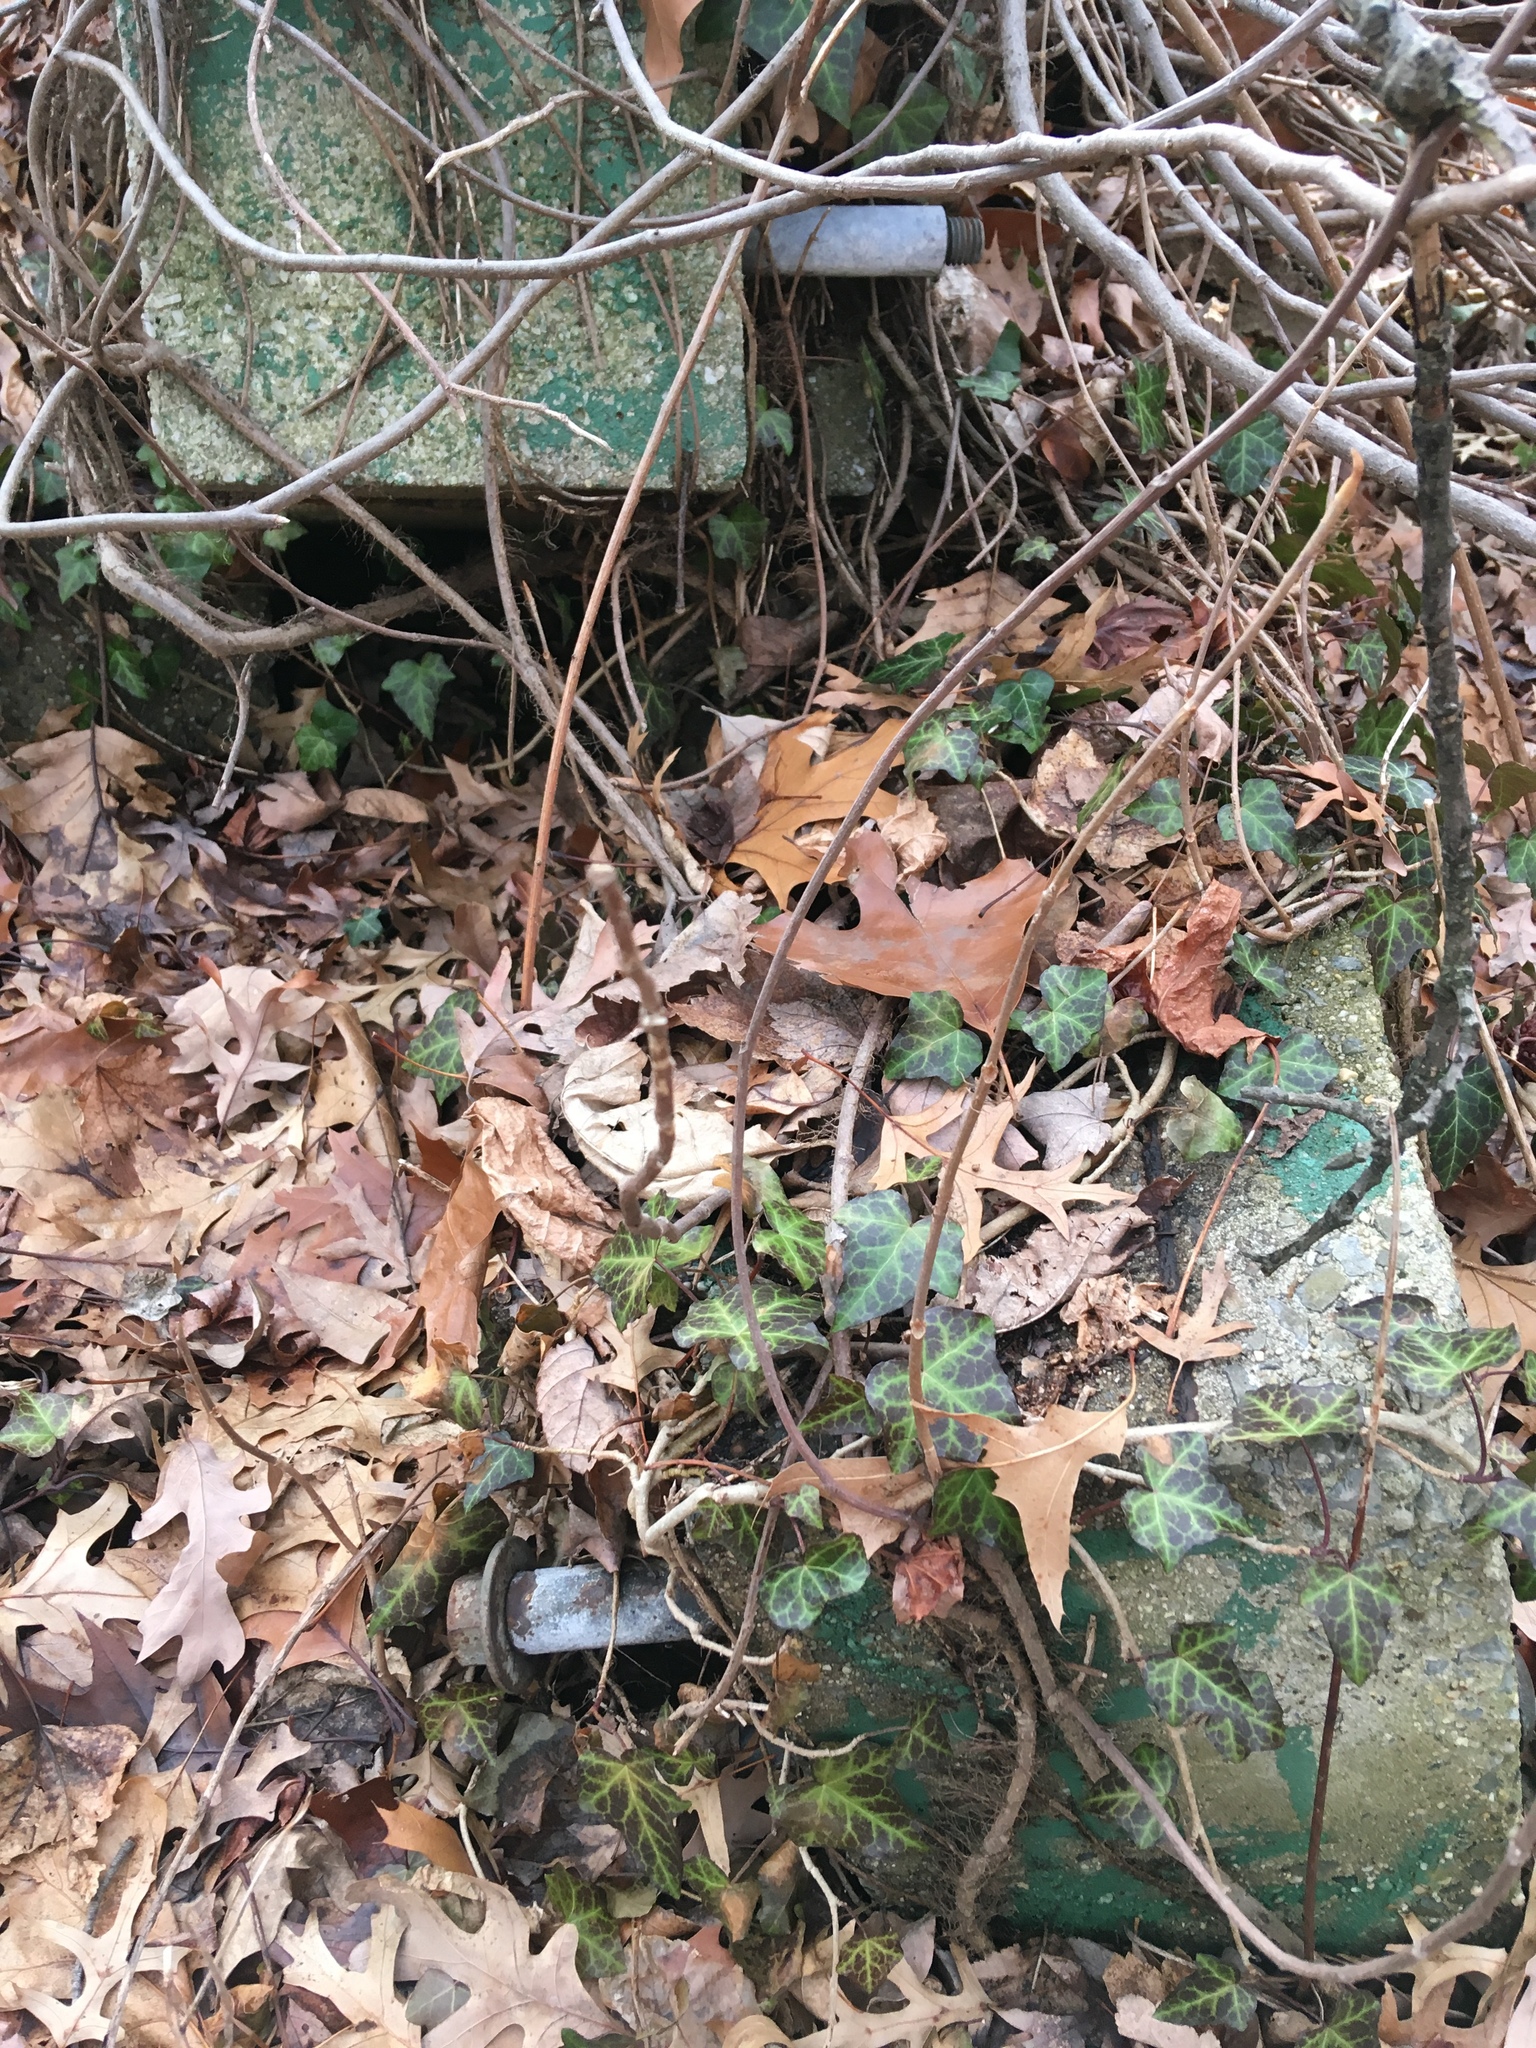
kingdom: Plantae
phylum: Tracheophyta
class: Magnoliopsida
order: Apiales
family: Araliaceae
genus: Hedera
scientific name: Hedera helix
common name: Ivy
